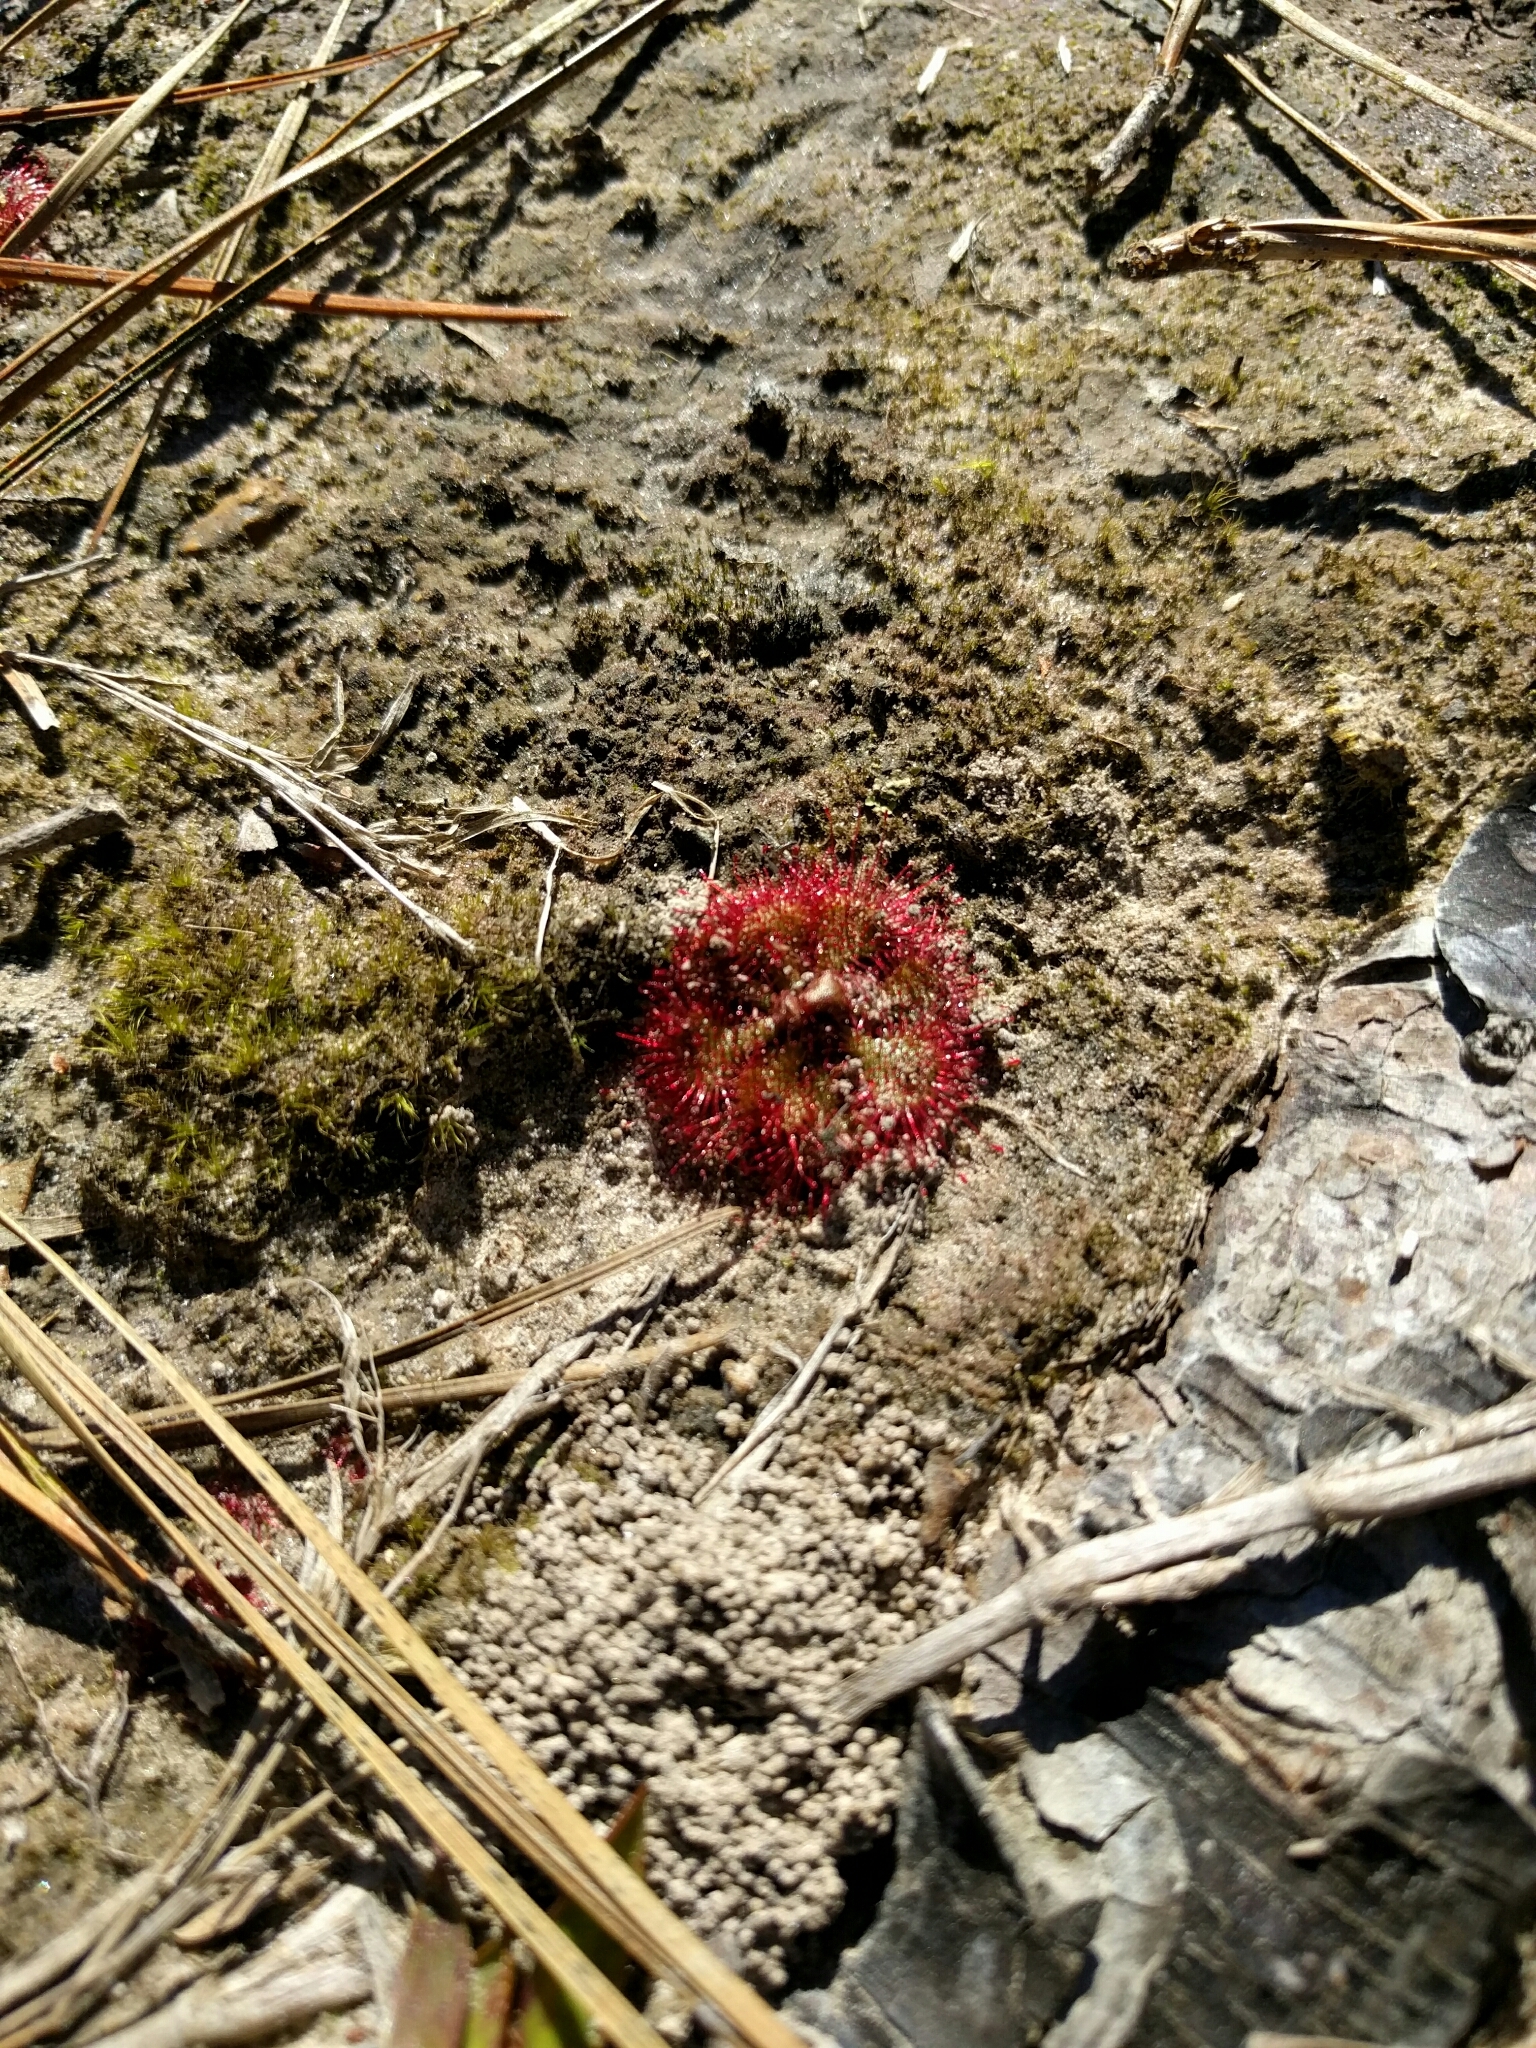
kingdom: Plantae
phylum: Tracheophyta
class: Magnoliopsida
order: Caryophyllales
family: Droseraceae
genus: Drosera
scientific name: Drosera brevifolia
